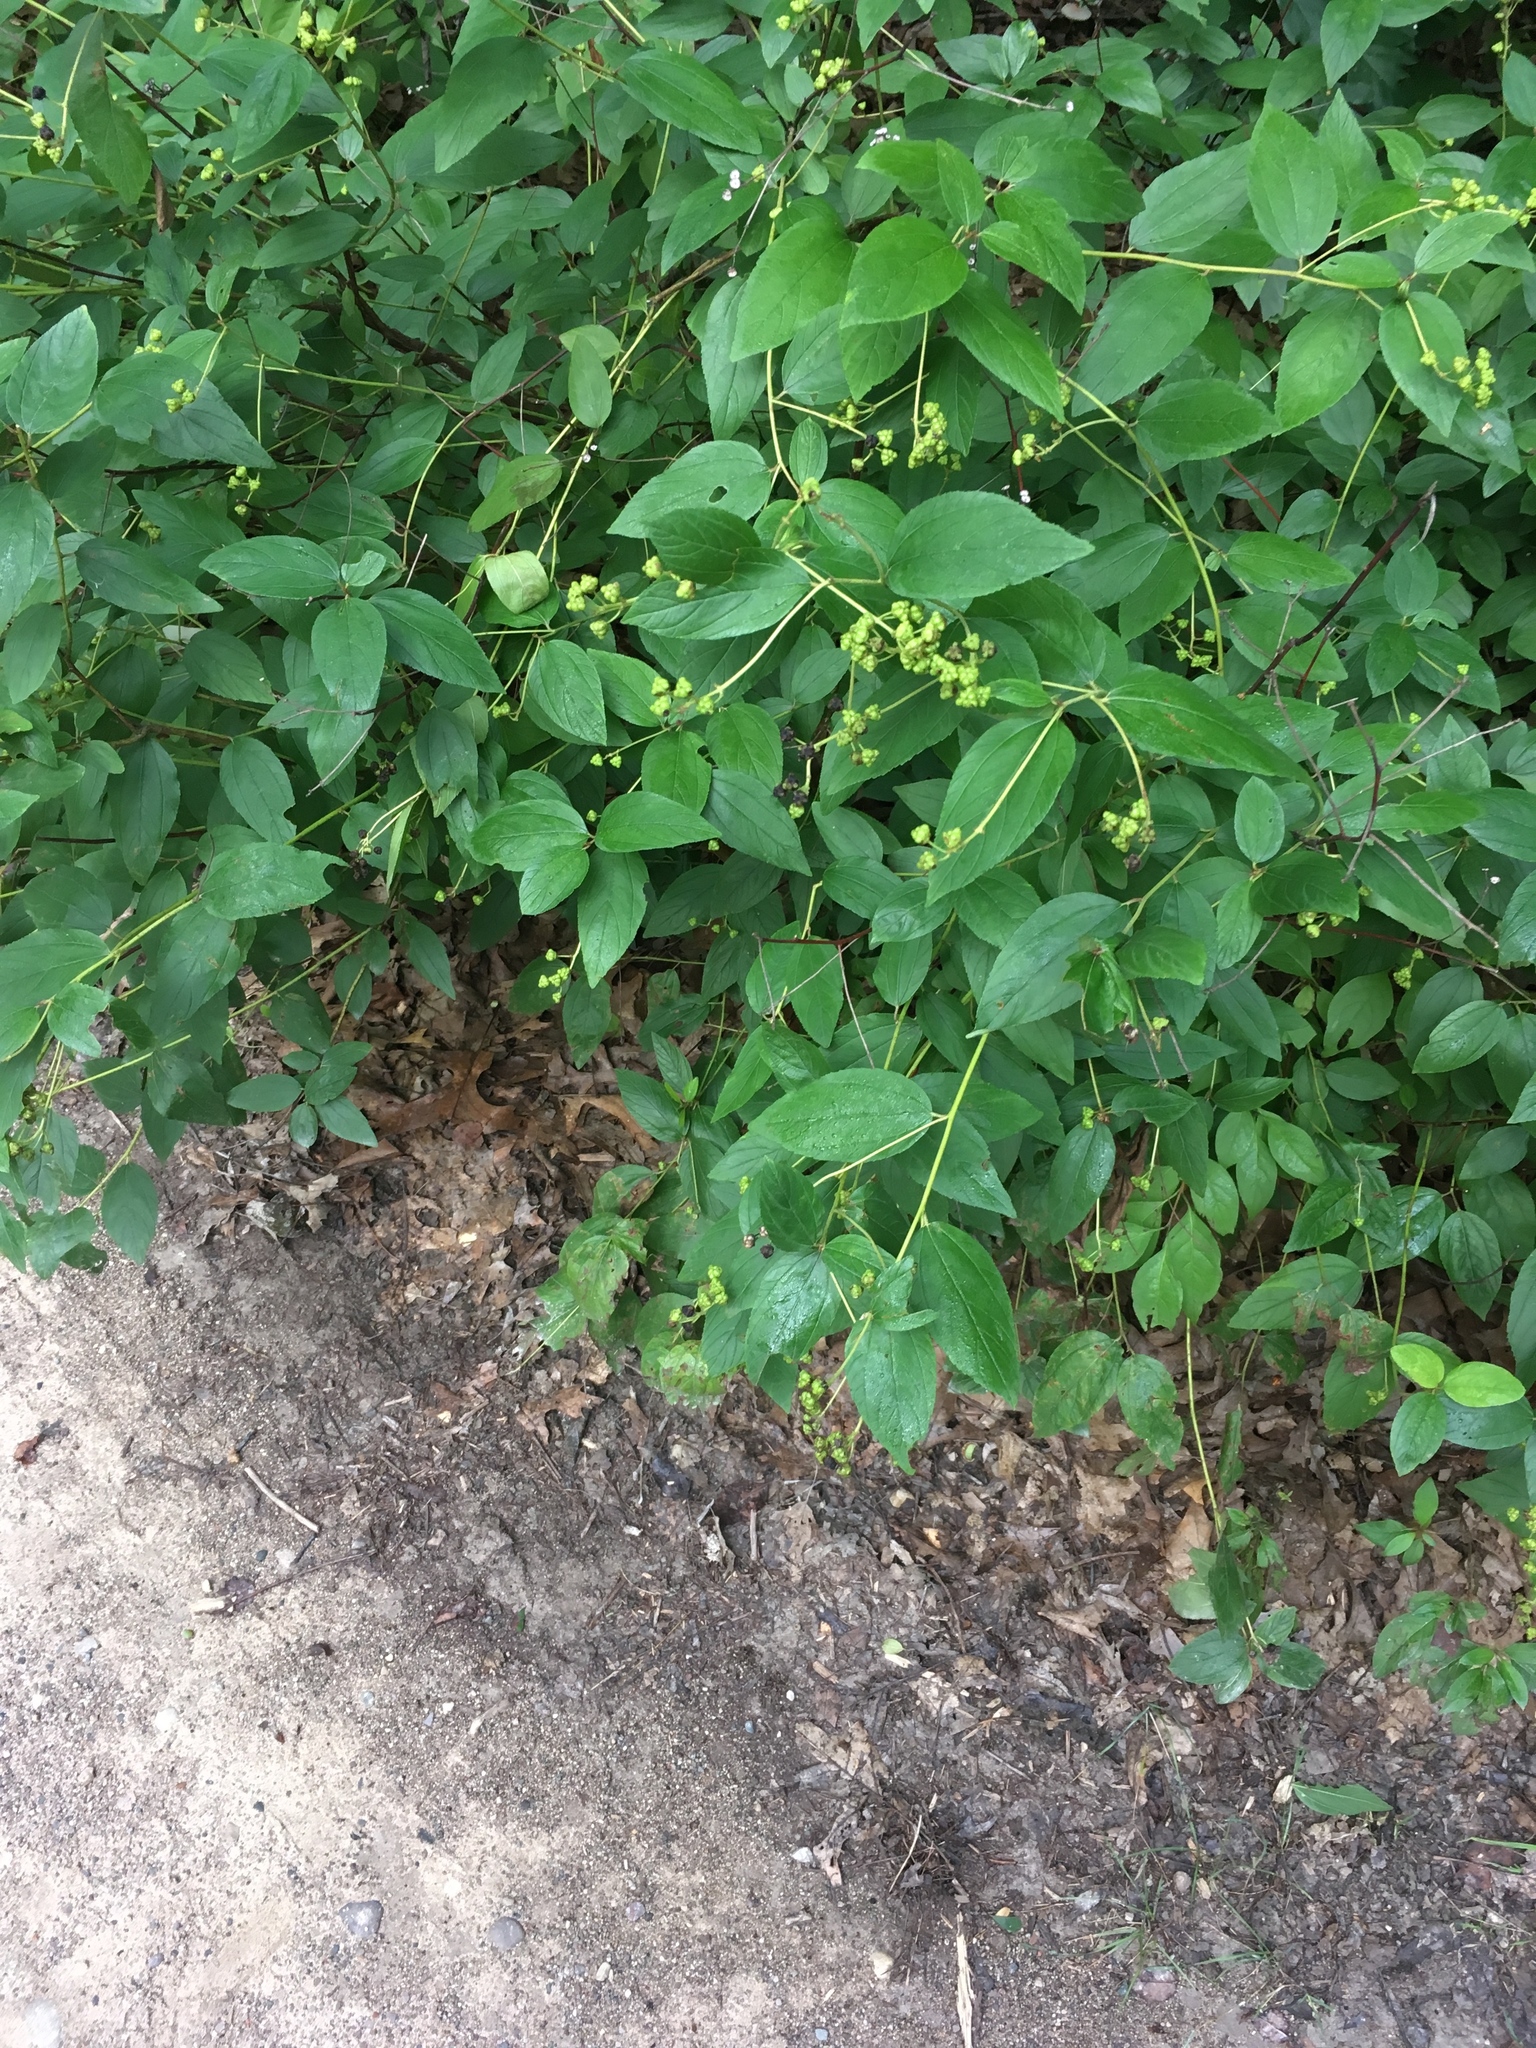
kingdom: Plantae
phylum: Tracheophyta
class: Magnoliopsida
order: Rosales
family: Rhamnaceae
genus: Ceanothus
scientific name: Ceanothus americanus
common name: Redroot
